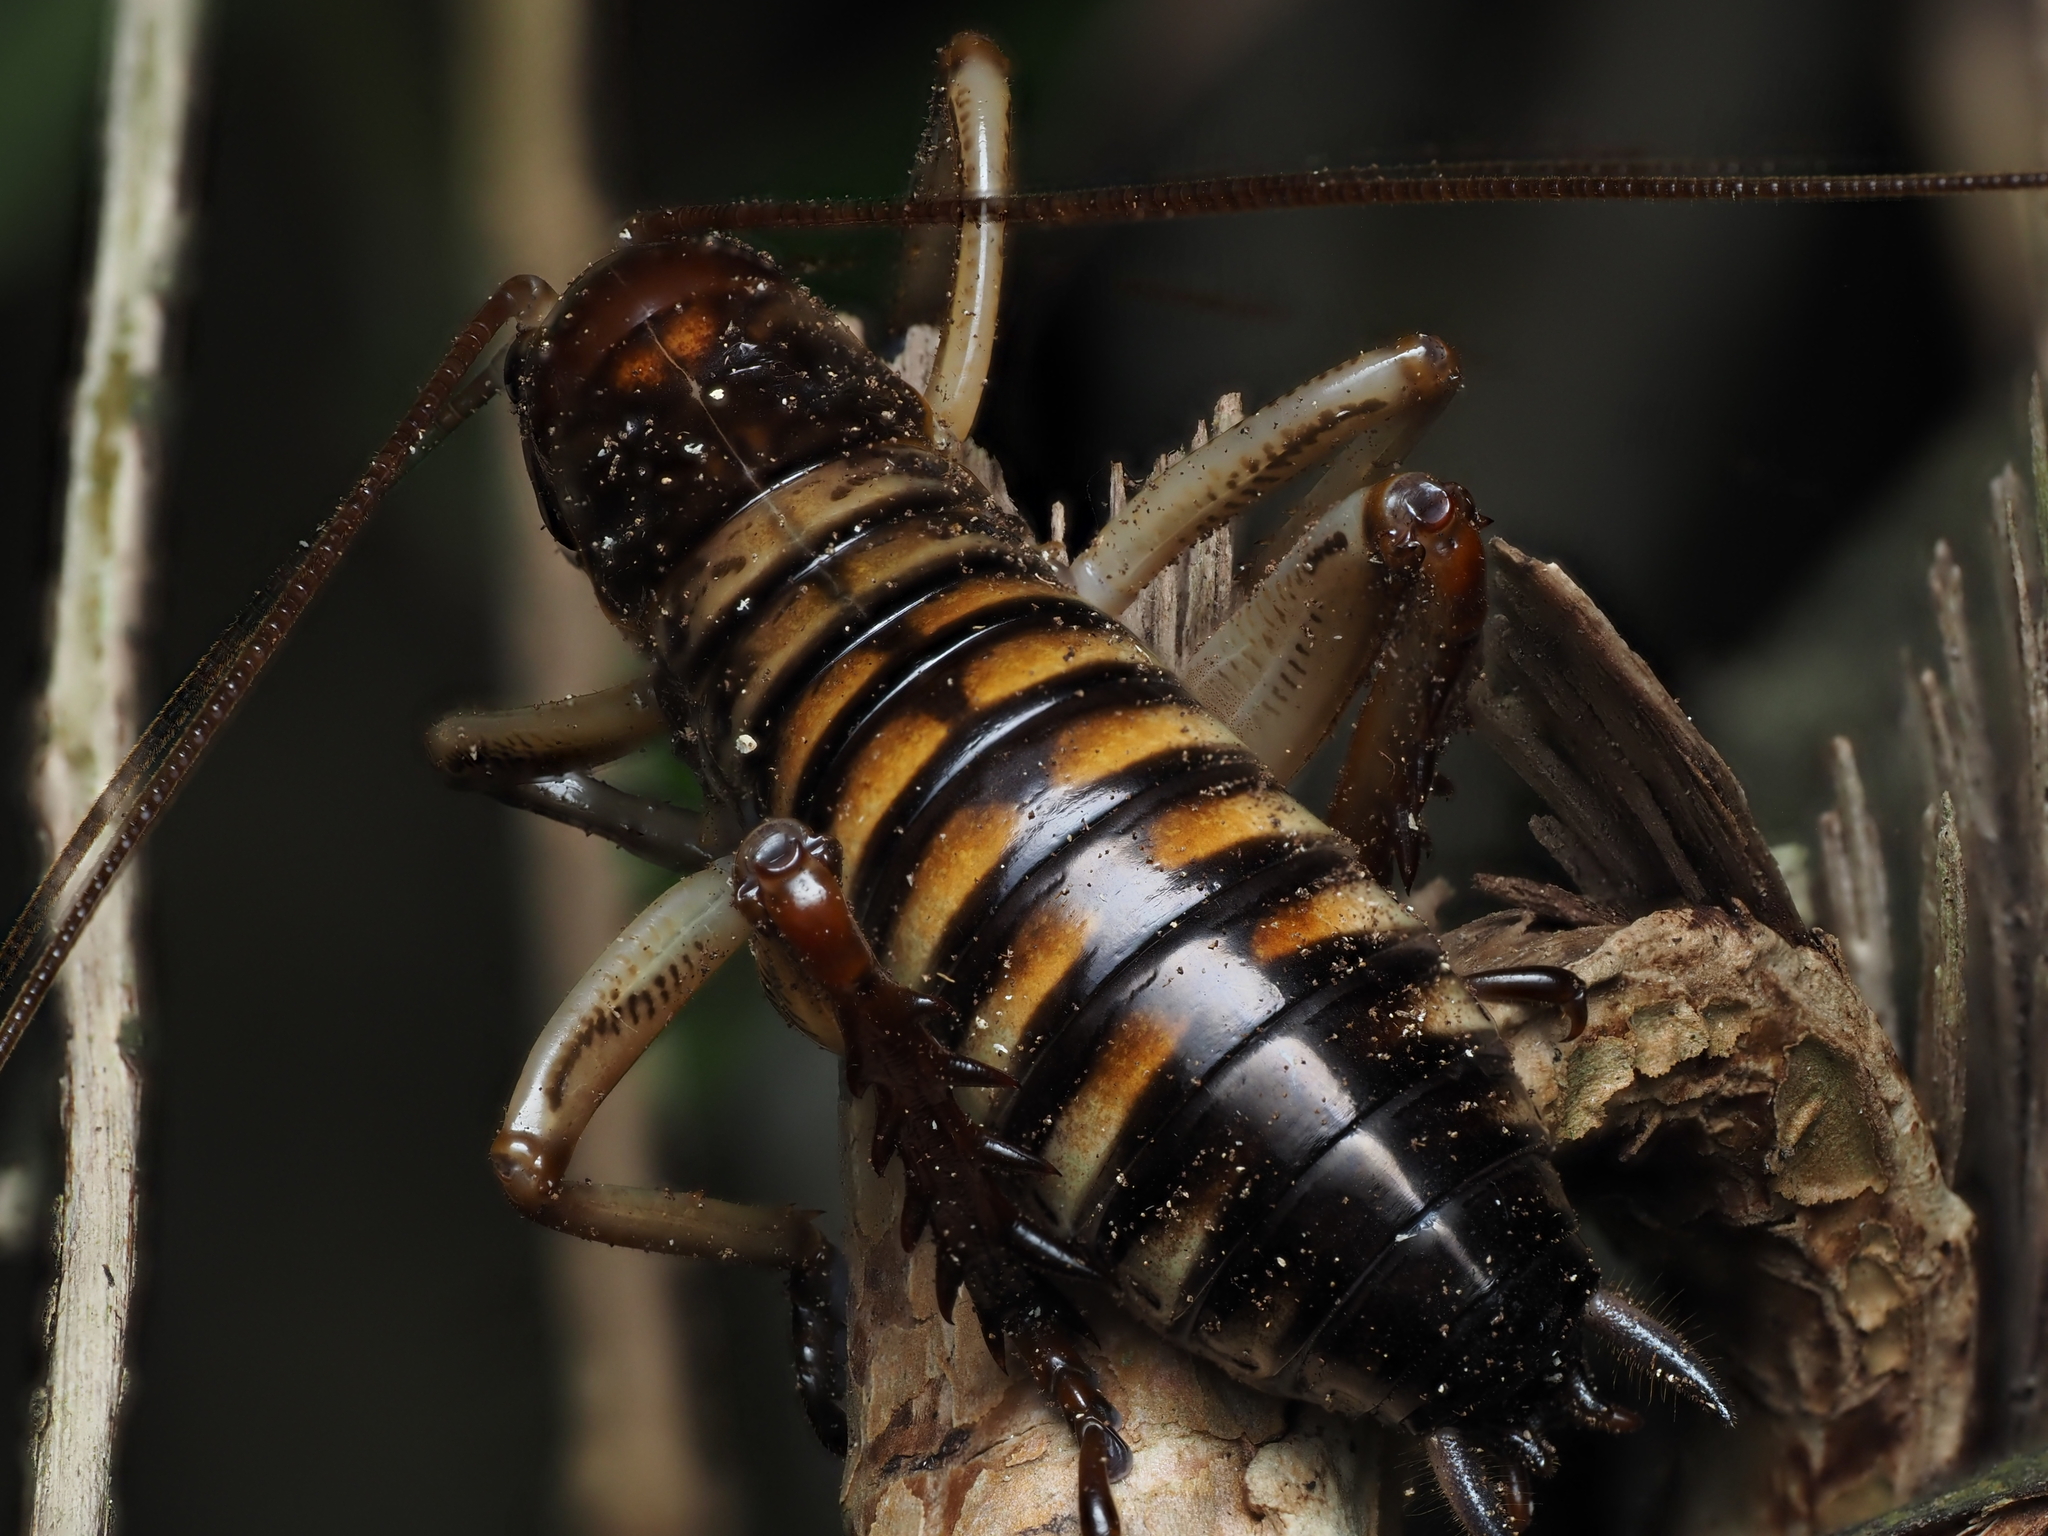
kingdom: Animalia
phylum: Arthropoda
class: Insecta
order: Orthoptera
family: Anostostomatidae
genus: Hemideina
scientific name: Hemideina crassidens
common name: Wellington tree weta
